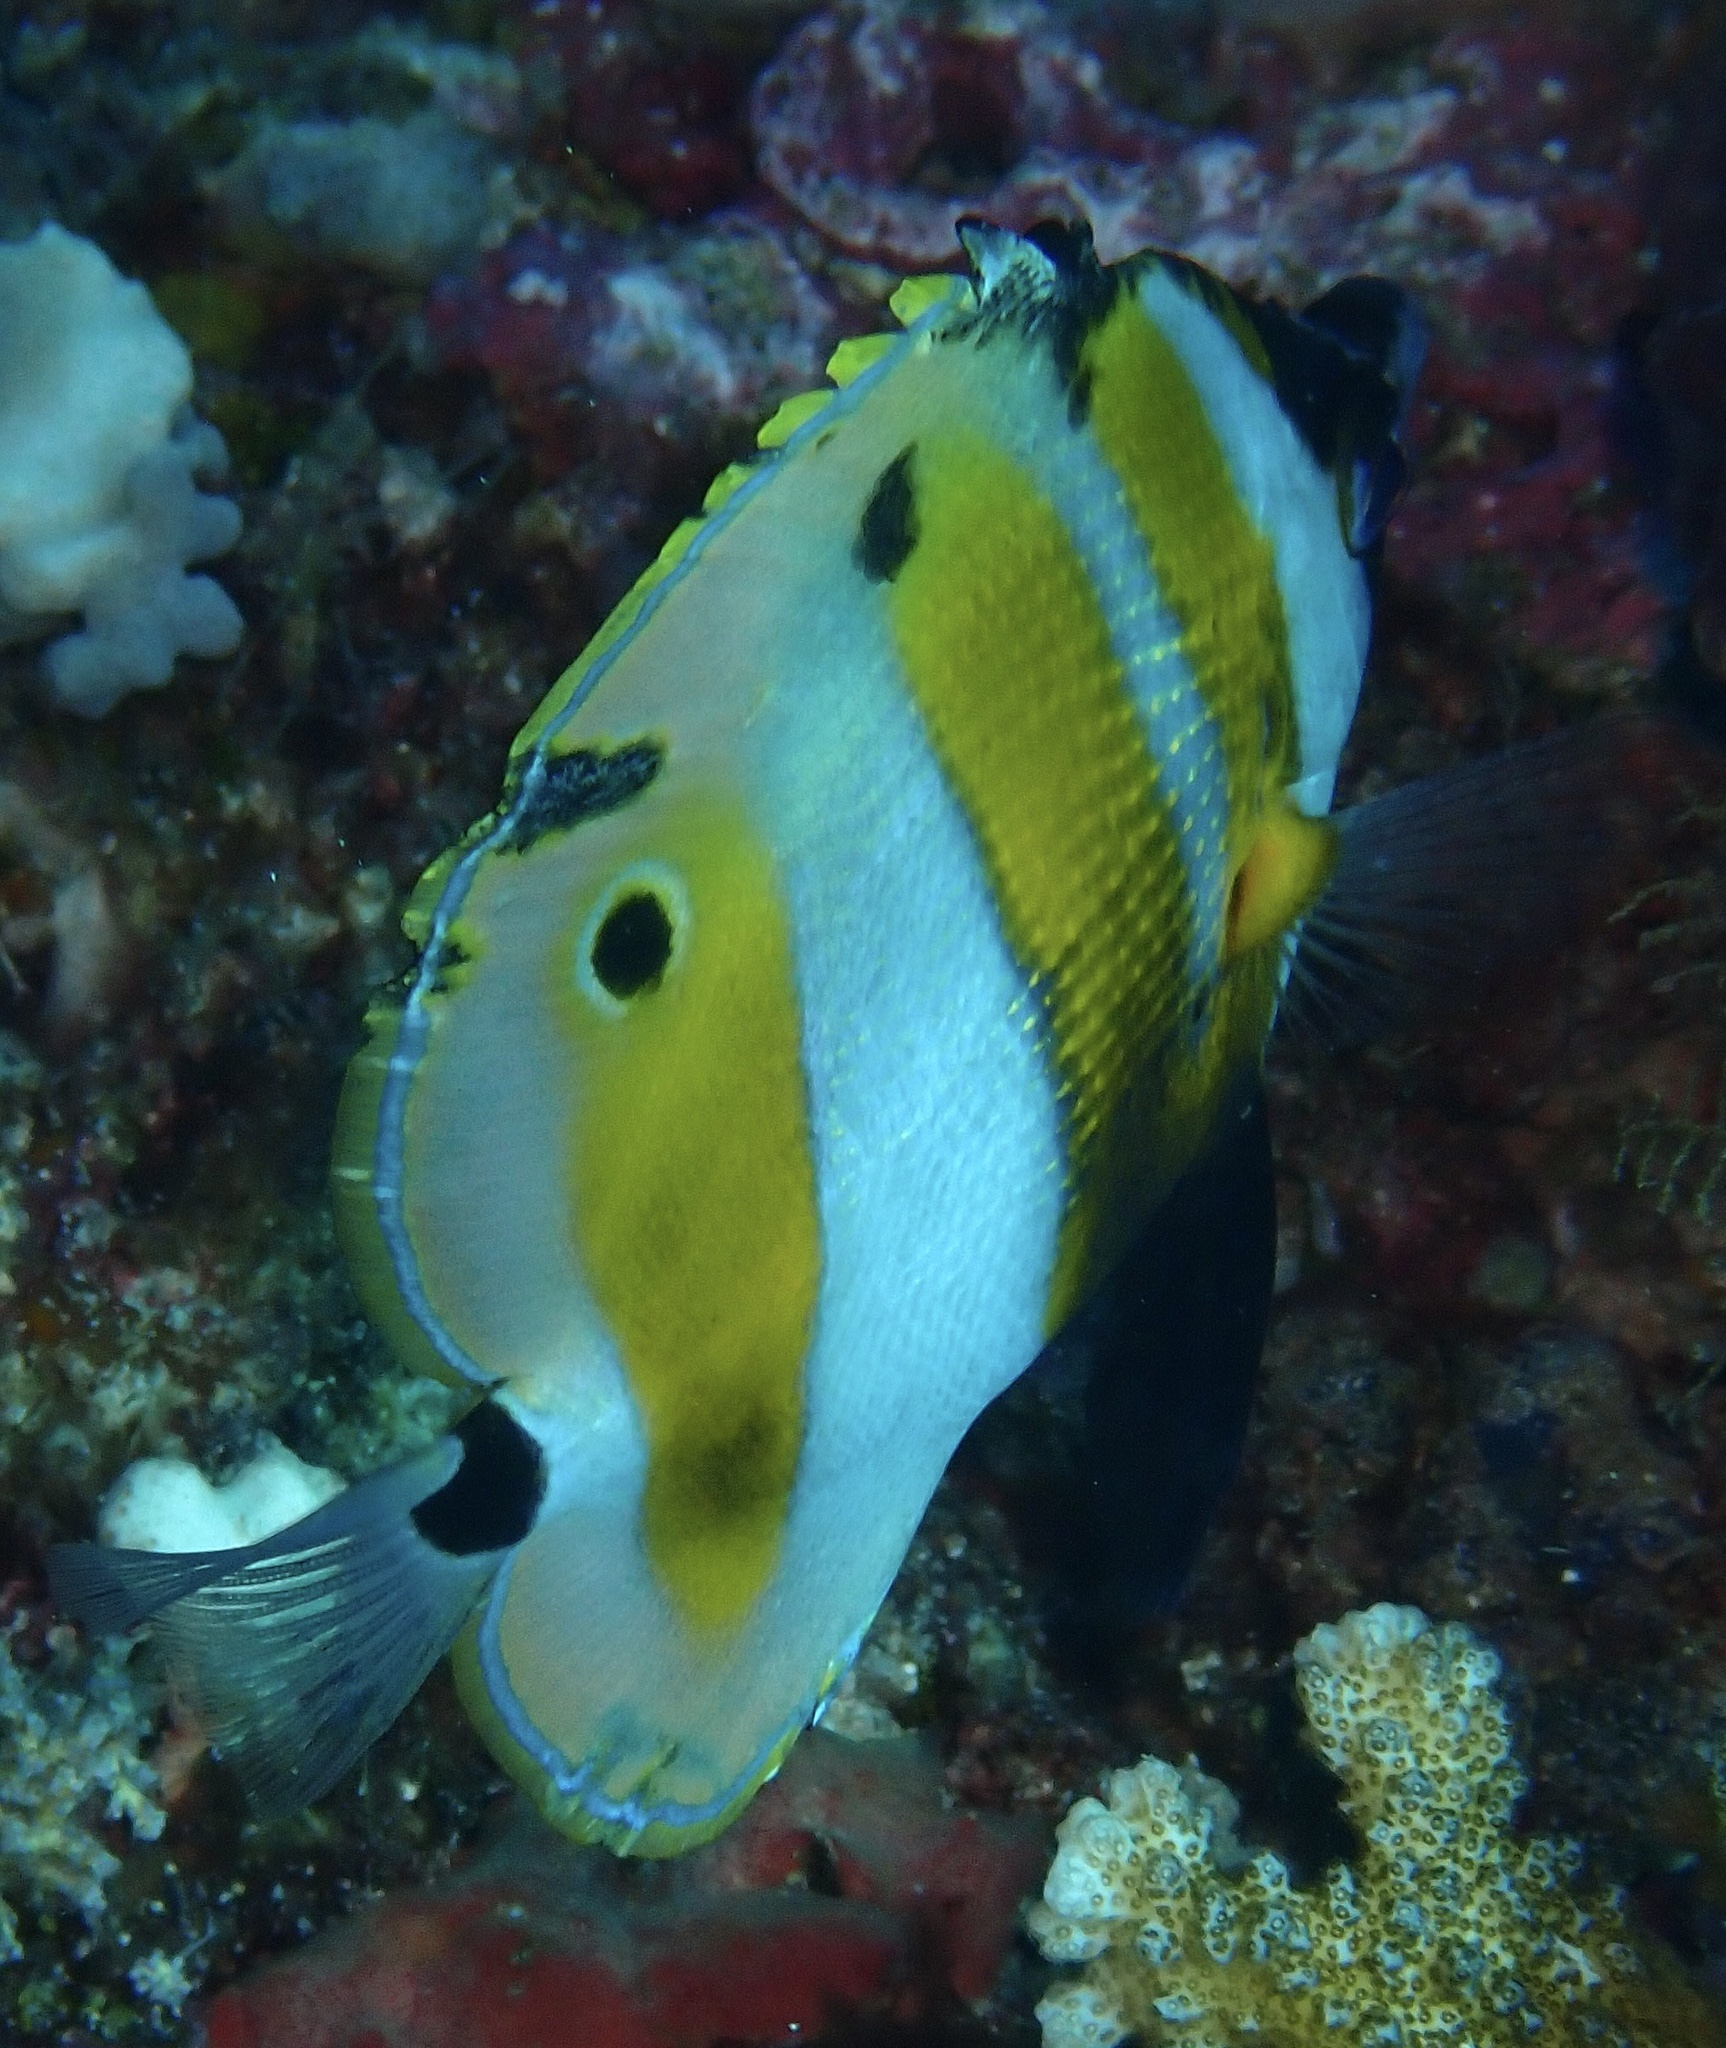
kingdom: Animalia
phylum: Chordata
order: Perciformes
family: Chaetodontidae
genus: Coradion
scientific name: Coradion chrysozonus
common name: Orange-banded coralfish
